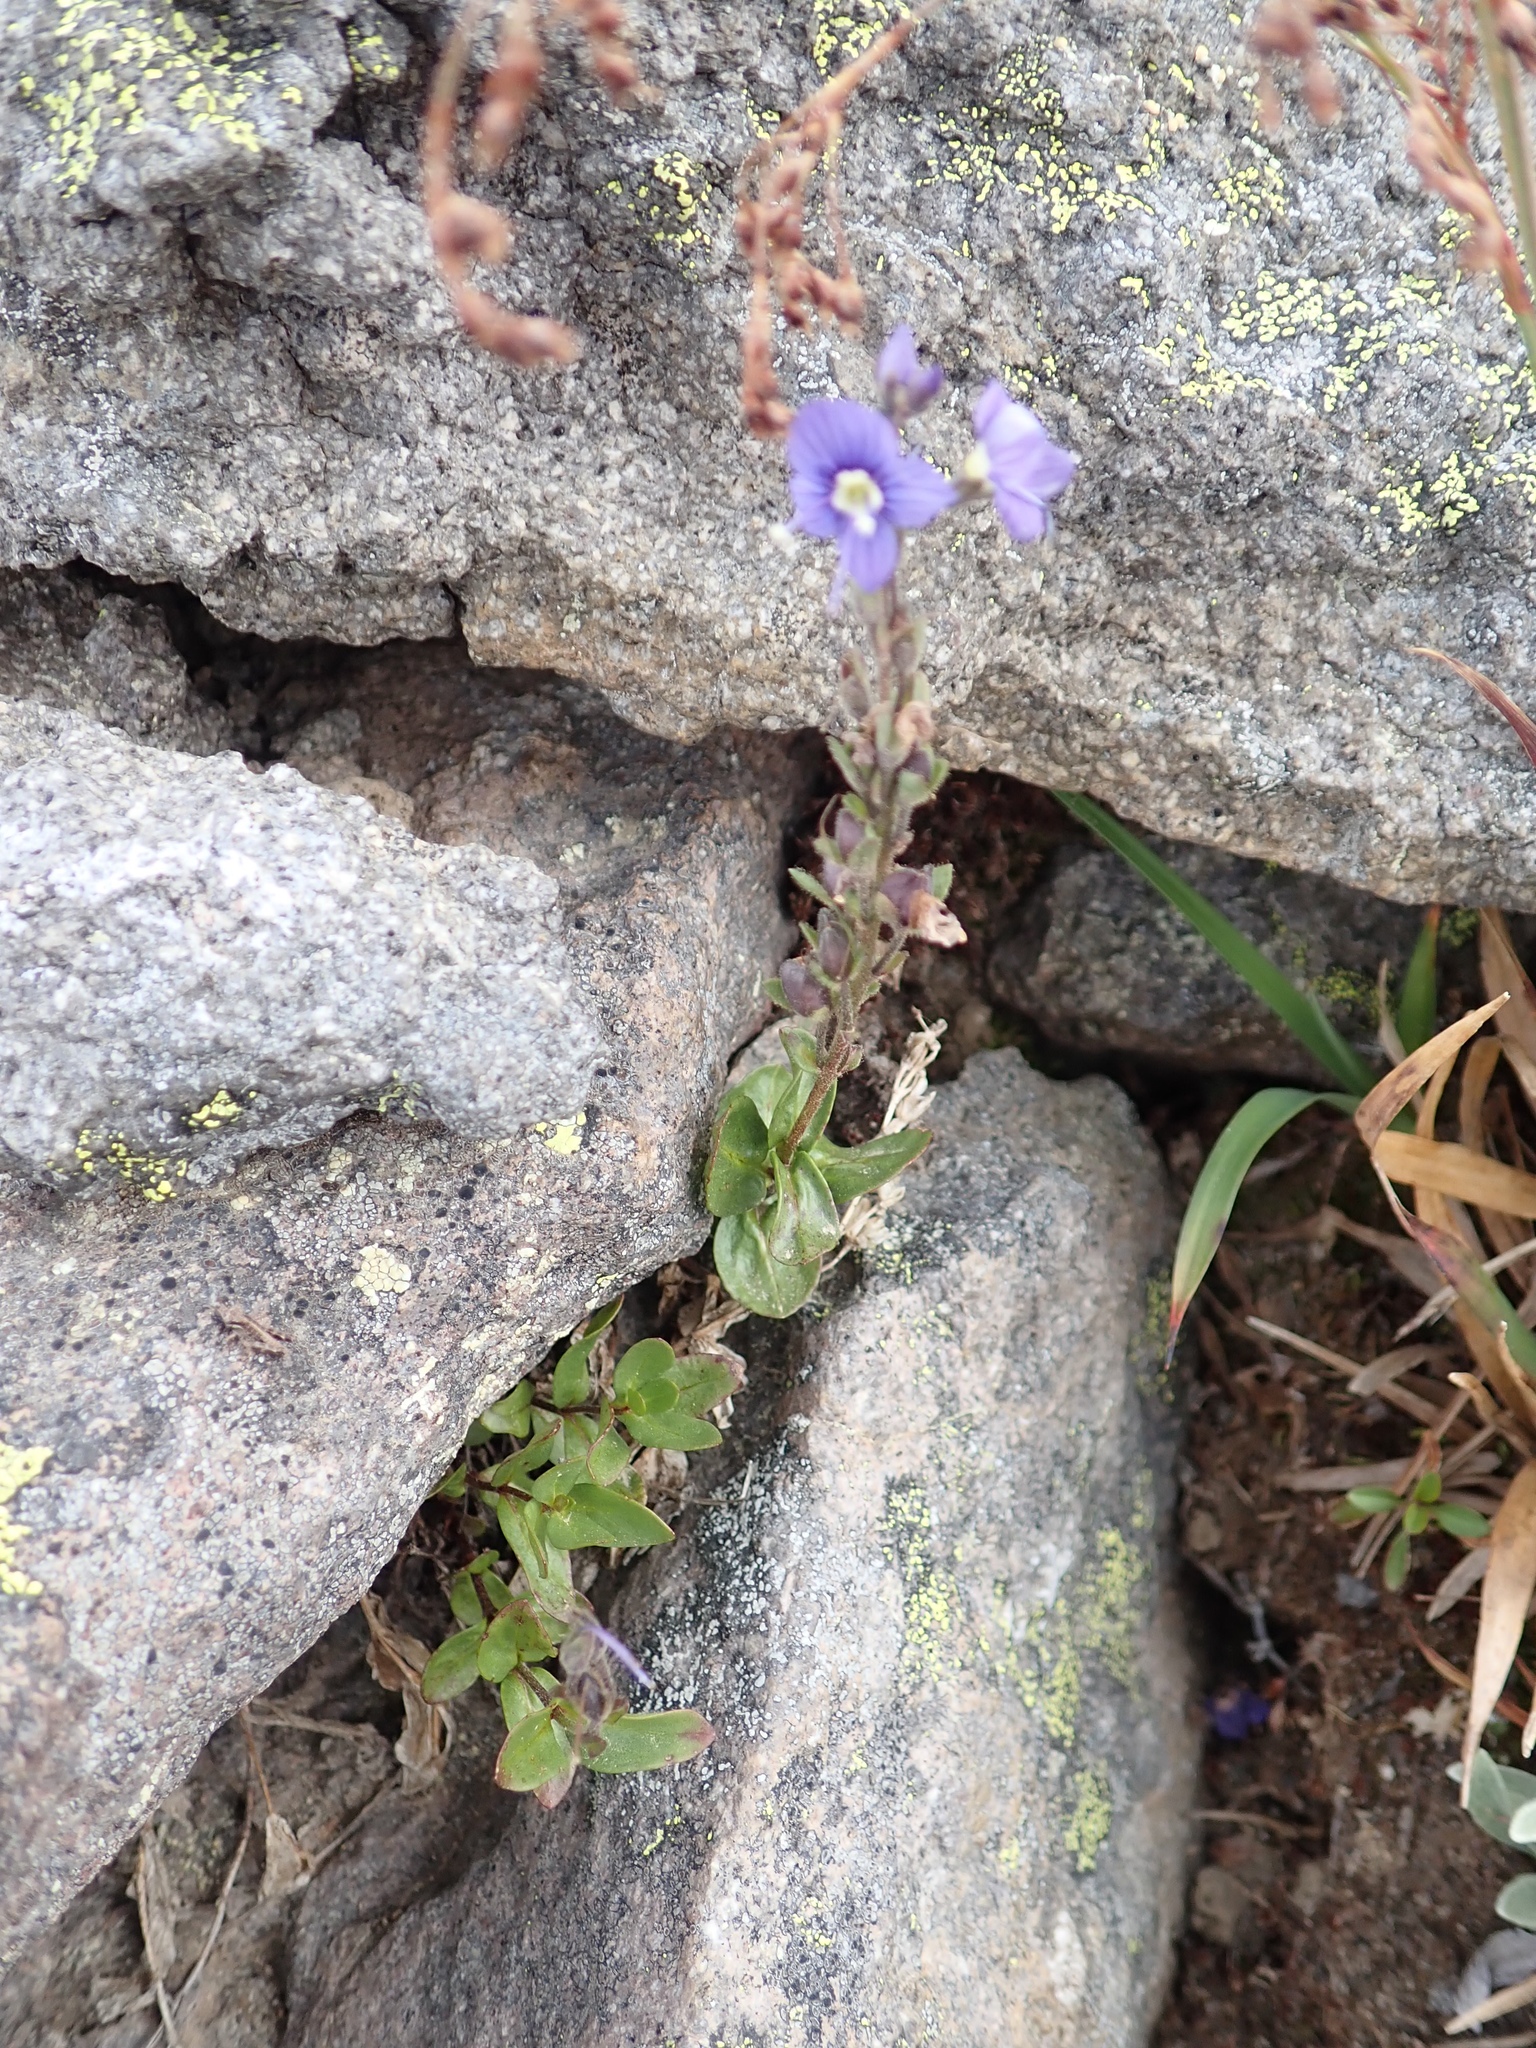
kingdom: Plantae
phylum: Tracheophyta
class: Magnoliopsida
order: Lamiales
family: Plantaginaceae
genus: Veronica
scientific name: Veronica cusickii
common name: Cusick's speedwell
